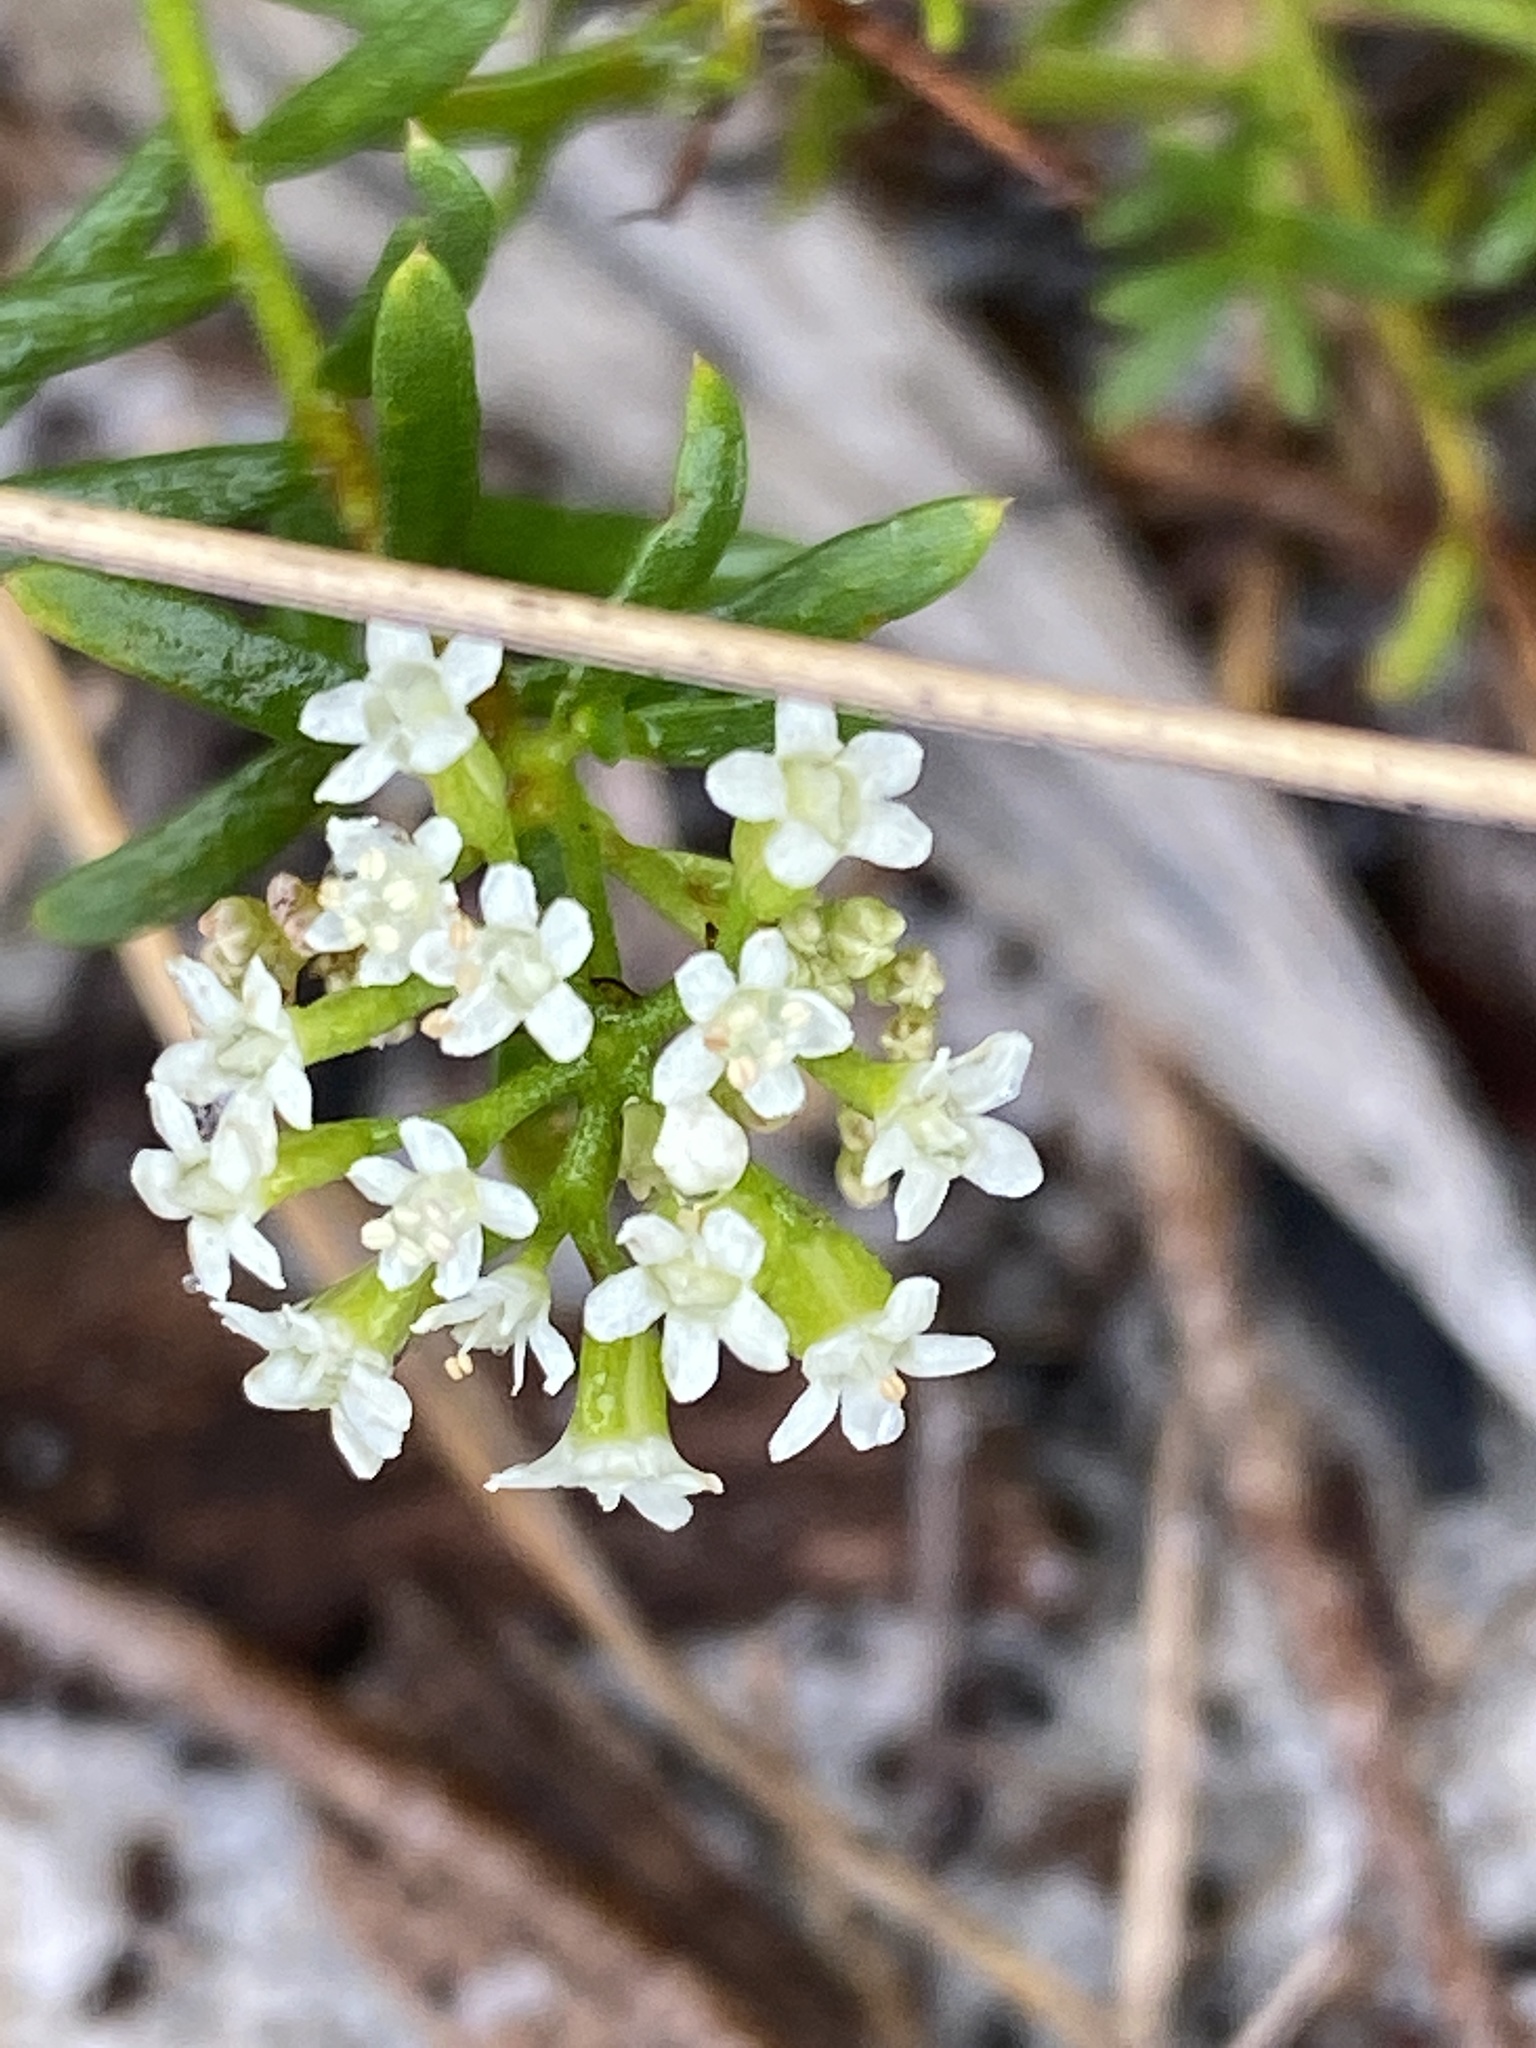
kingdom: Plantae
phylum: Tracheophyta
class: Magnoliopsida
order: Apiales
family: Apiaceae
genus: Platysace
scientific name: Platysace ericoides
